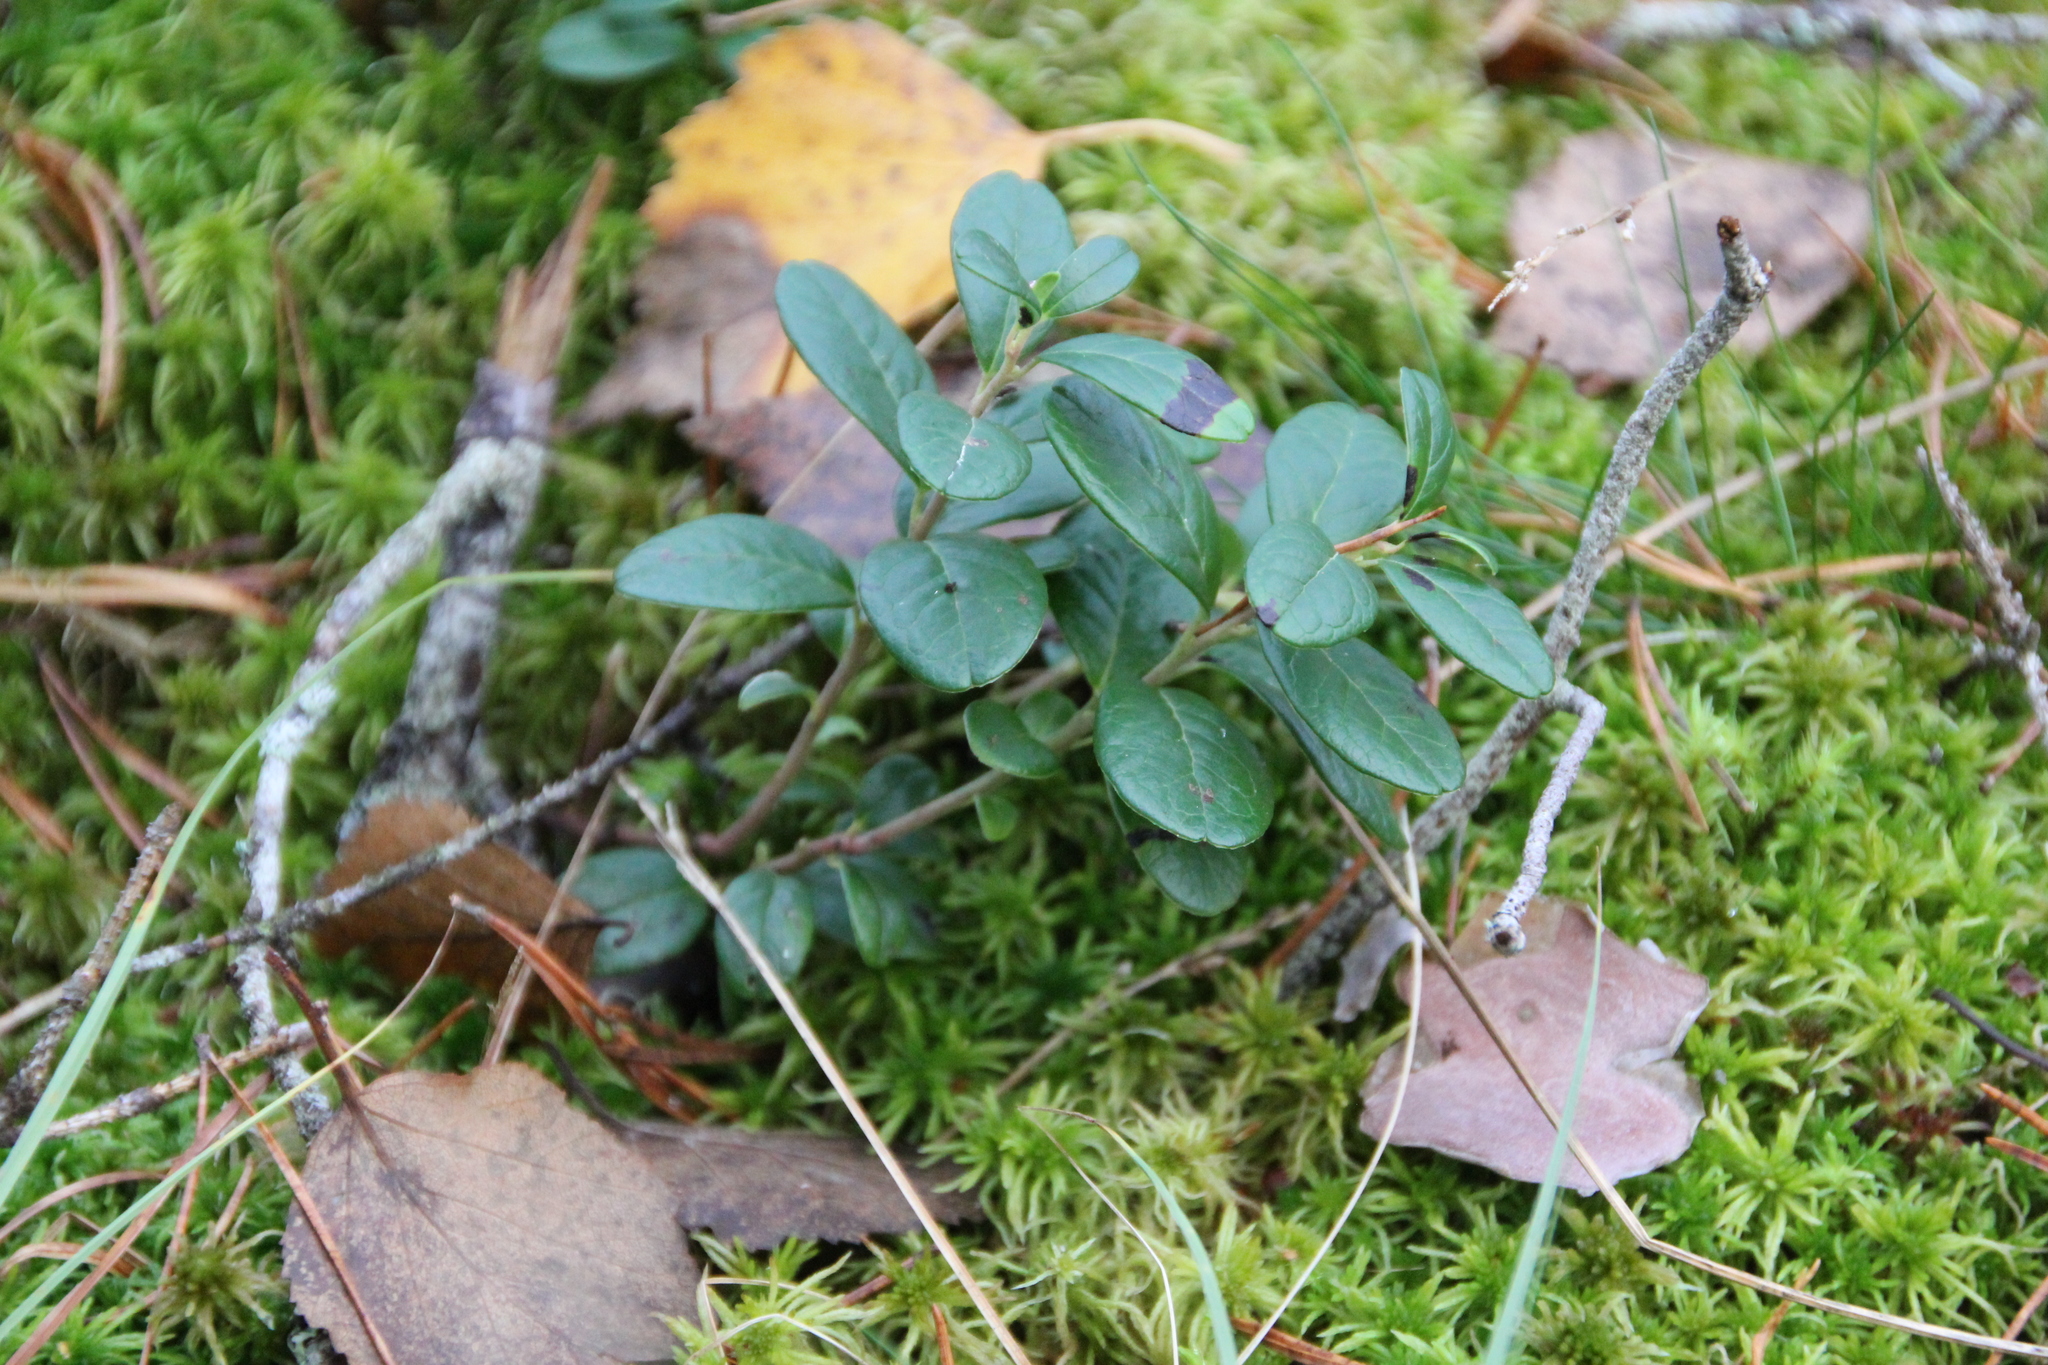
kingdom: Plantae
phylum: Tracheophyta
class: Magnoliopsida
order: Ericales
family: Ericaceae
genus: Vaccinium
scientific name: Vaccinium vitis-idaea
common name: Cowberry
